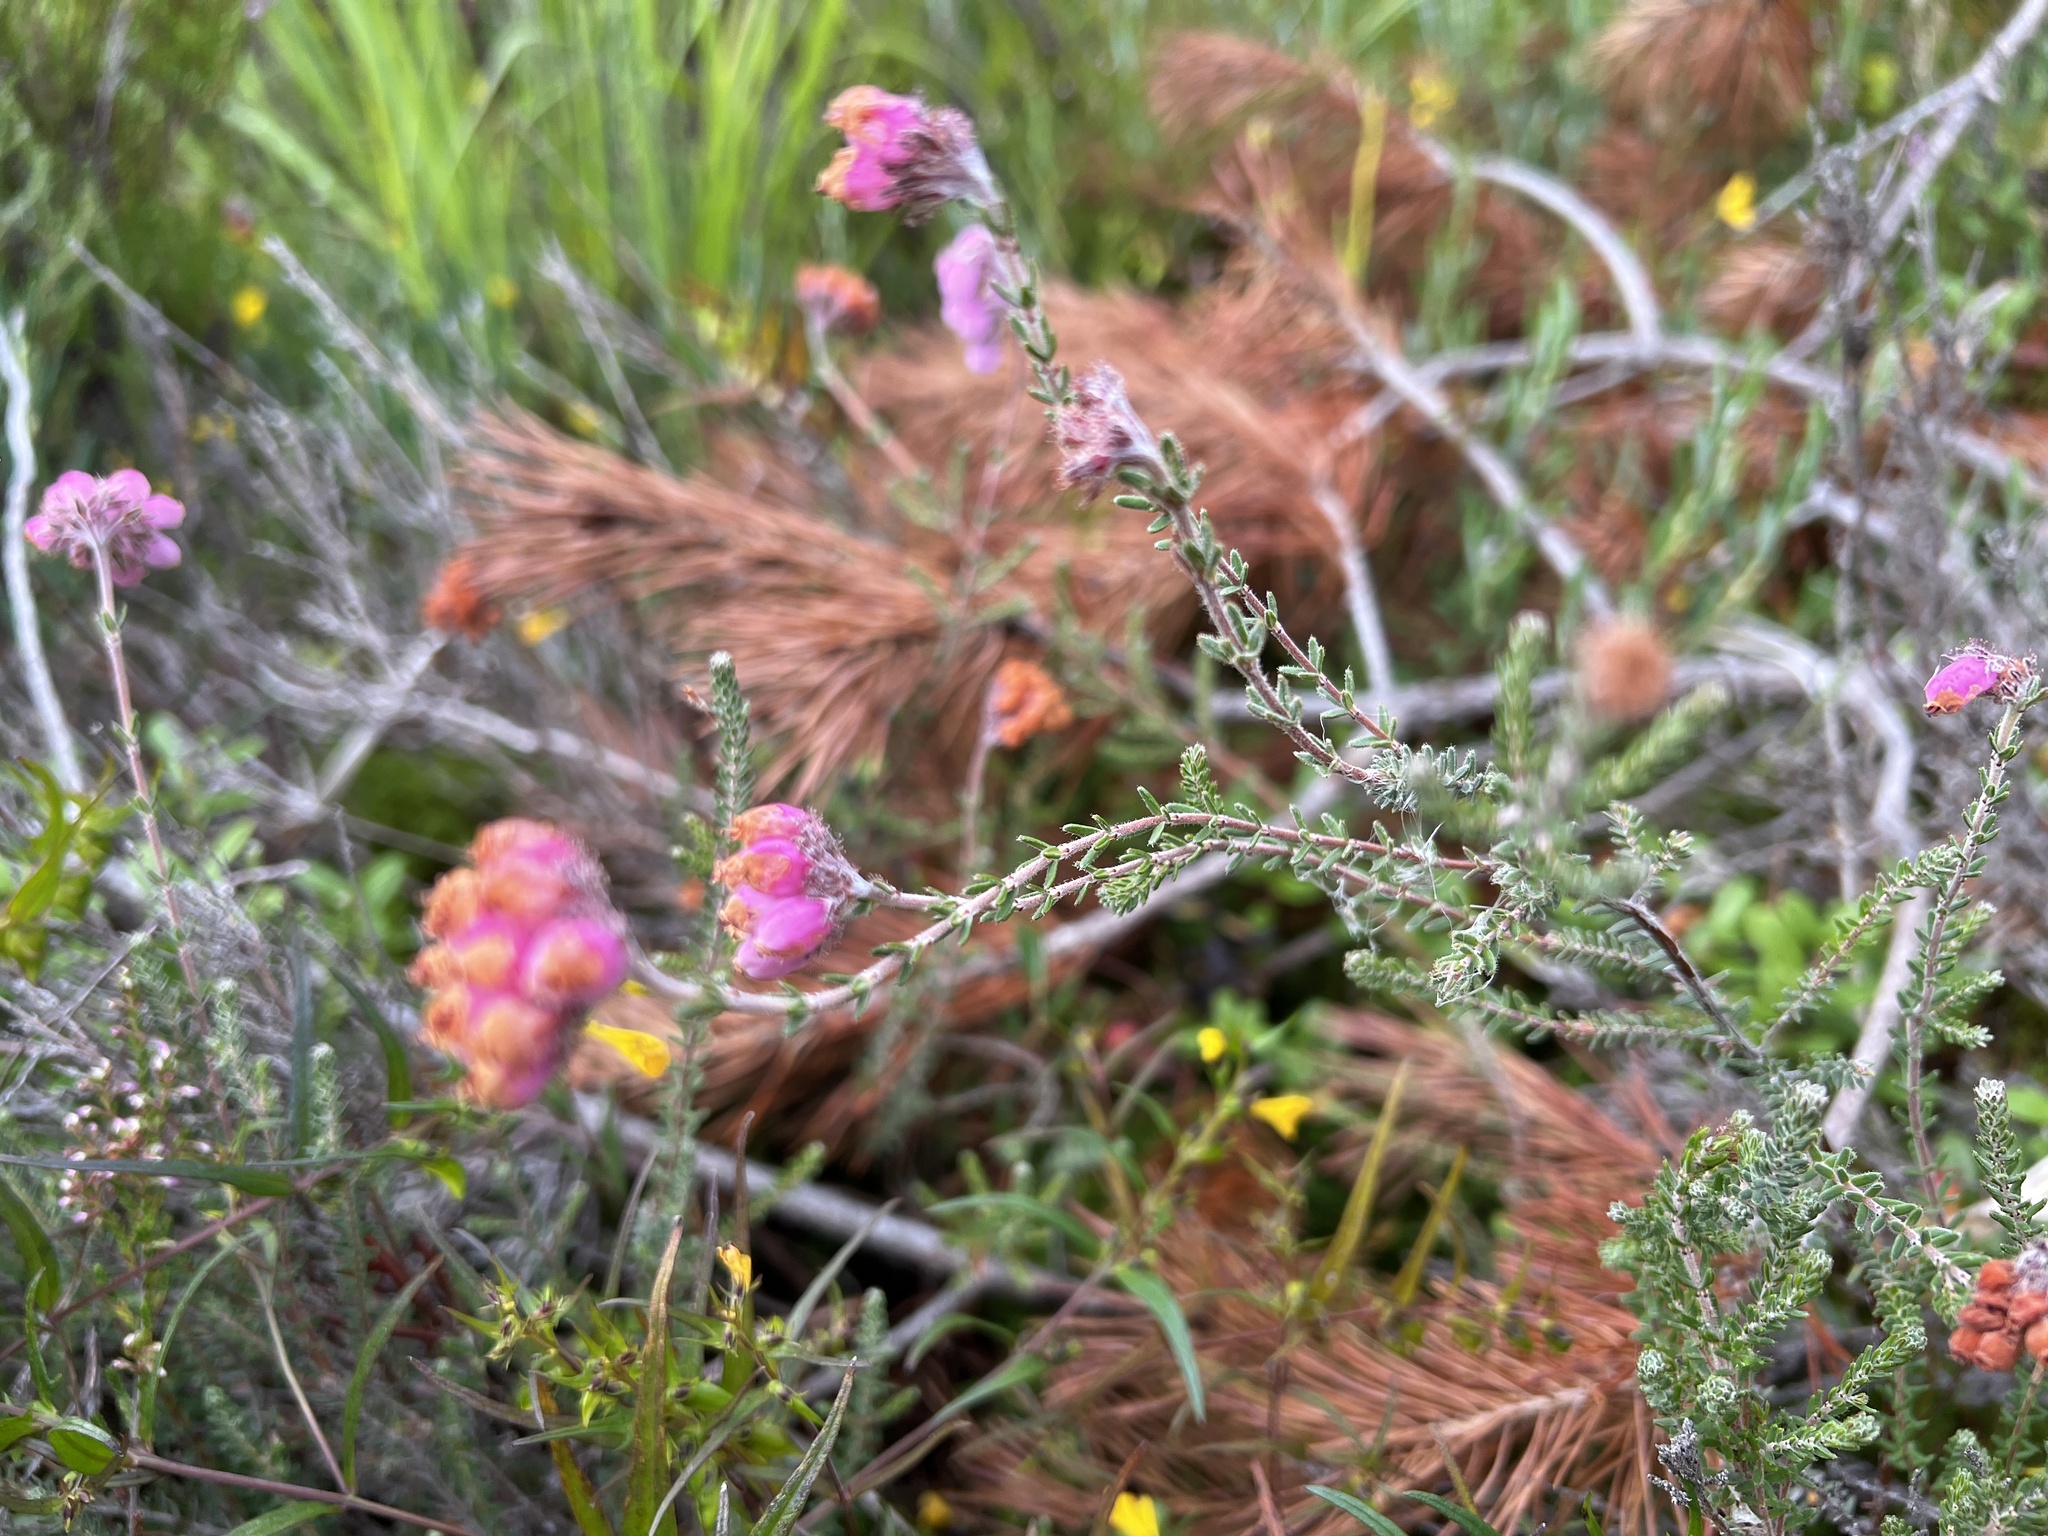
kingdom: Plantae
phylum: Tracheophyta
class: Magnoliopsida
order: Ericales
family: Ericaceae
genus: Erica
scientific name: Erica tetralix
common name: Cross-leaved heath
